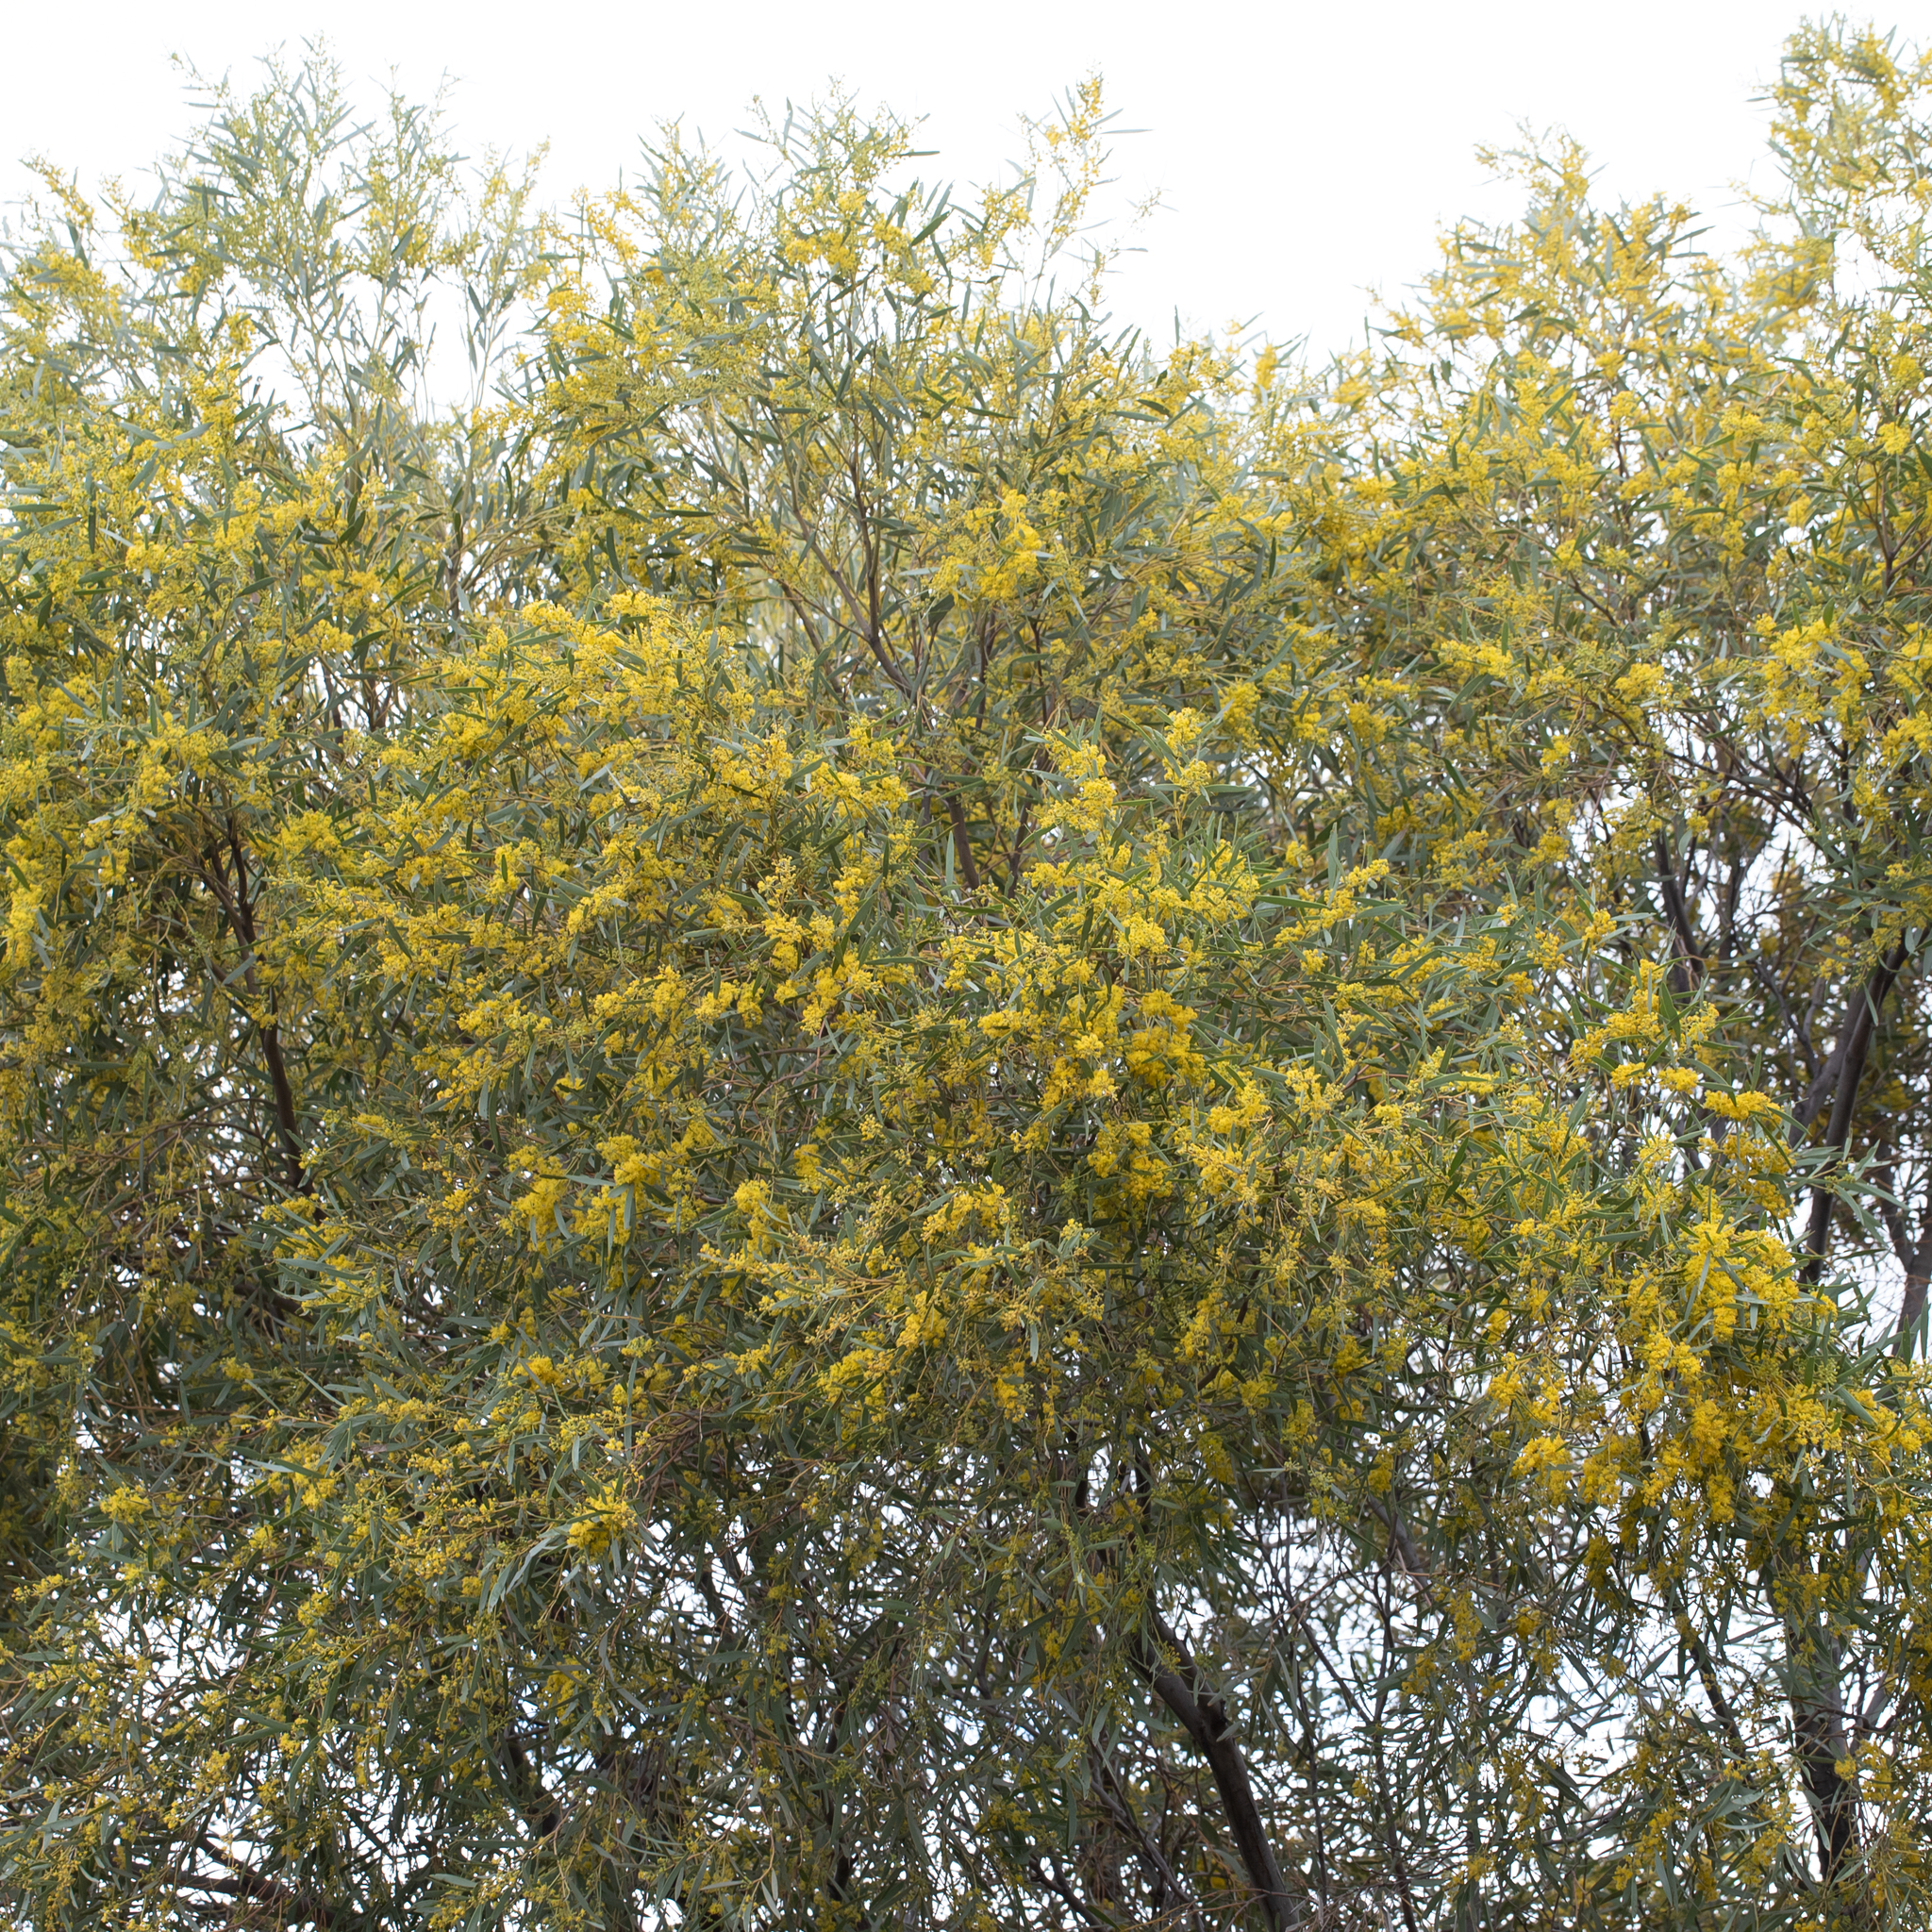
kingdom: Plantae
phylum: Tracheophyta
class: Magnoliopsida
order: Fabales
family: Fabaceae
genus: Acacia
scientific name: Acacia cambagei
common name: Gidgee
